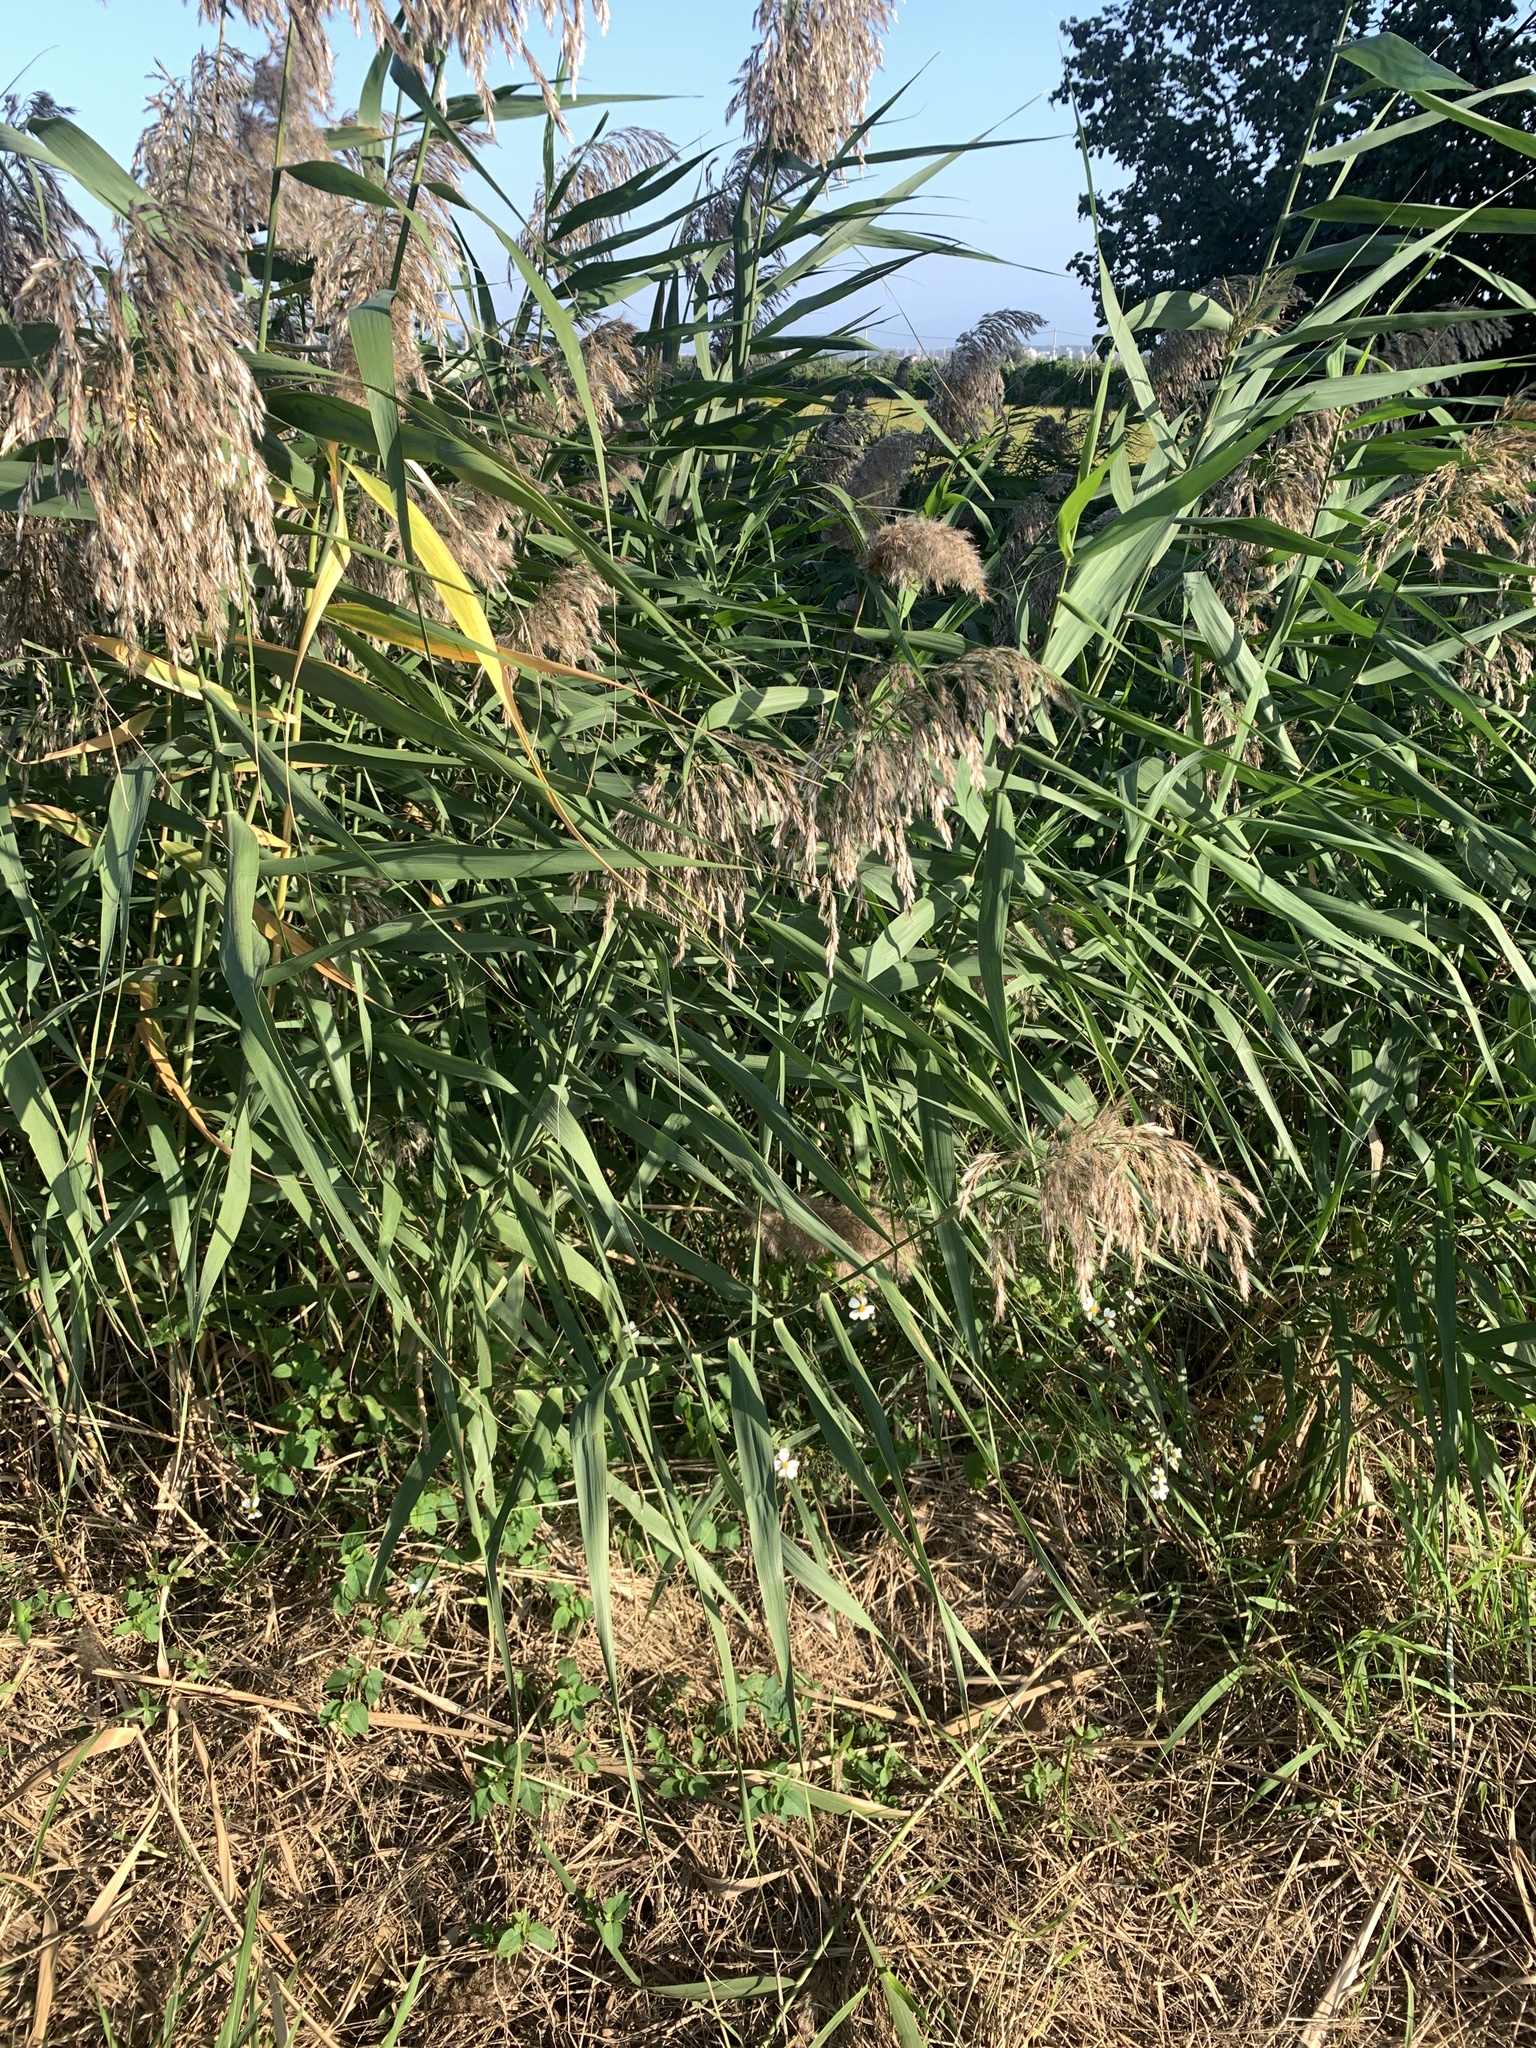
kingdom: Plantae
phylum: Tracheophyta
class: Liliopsida
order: Poales
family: Poaceae
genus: Phragmites
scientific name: Phragmites australis
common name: Common reed
